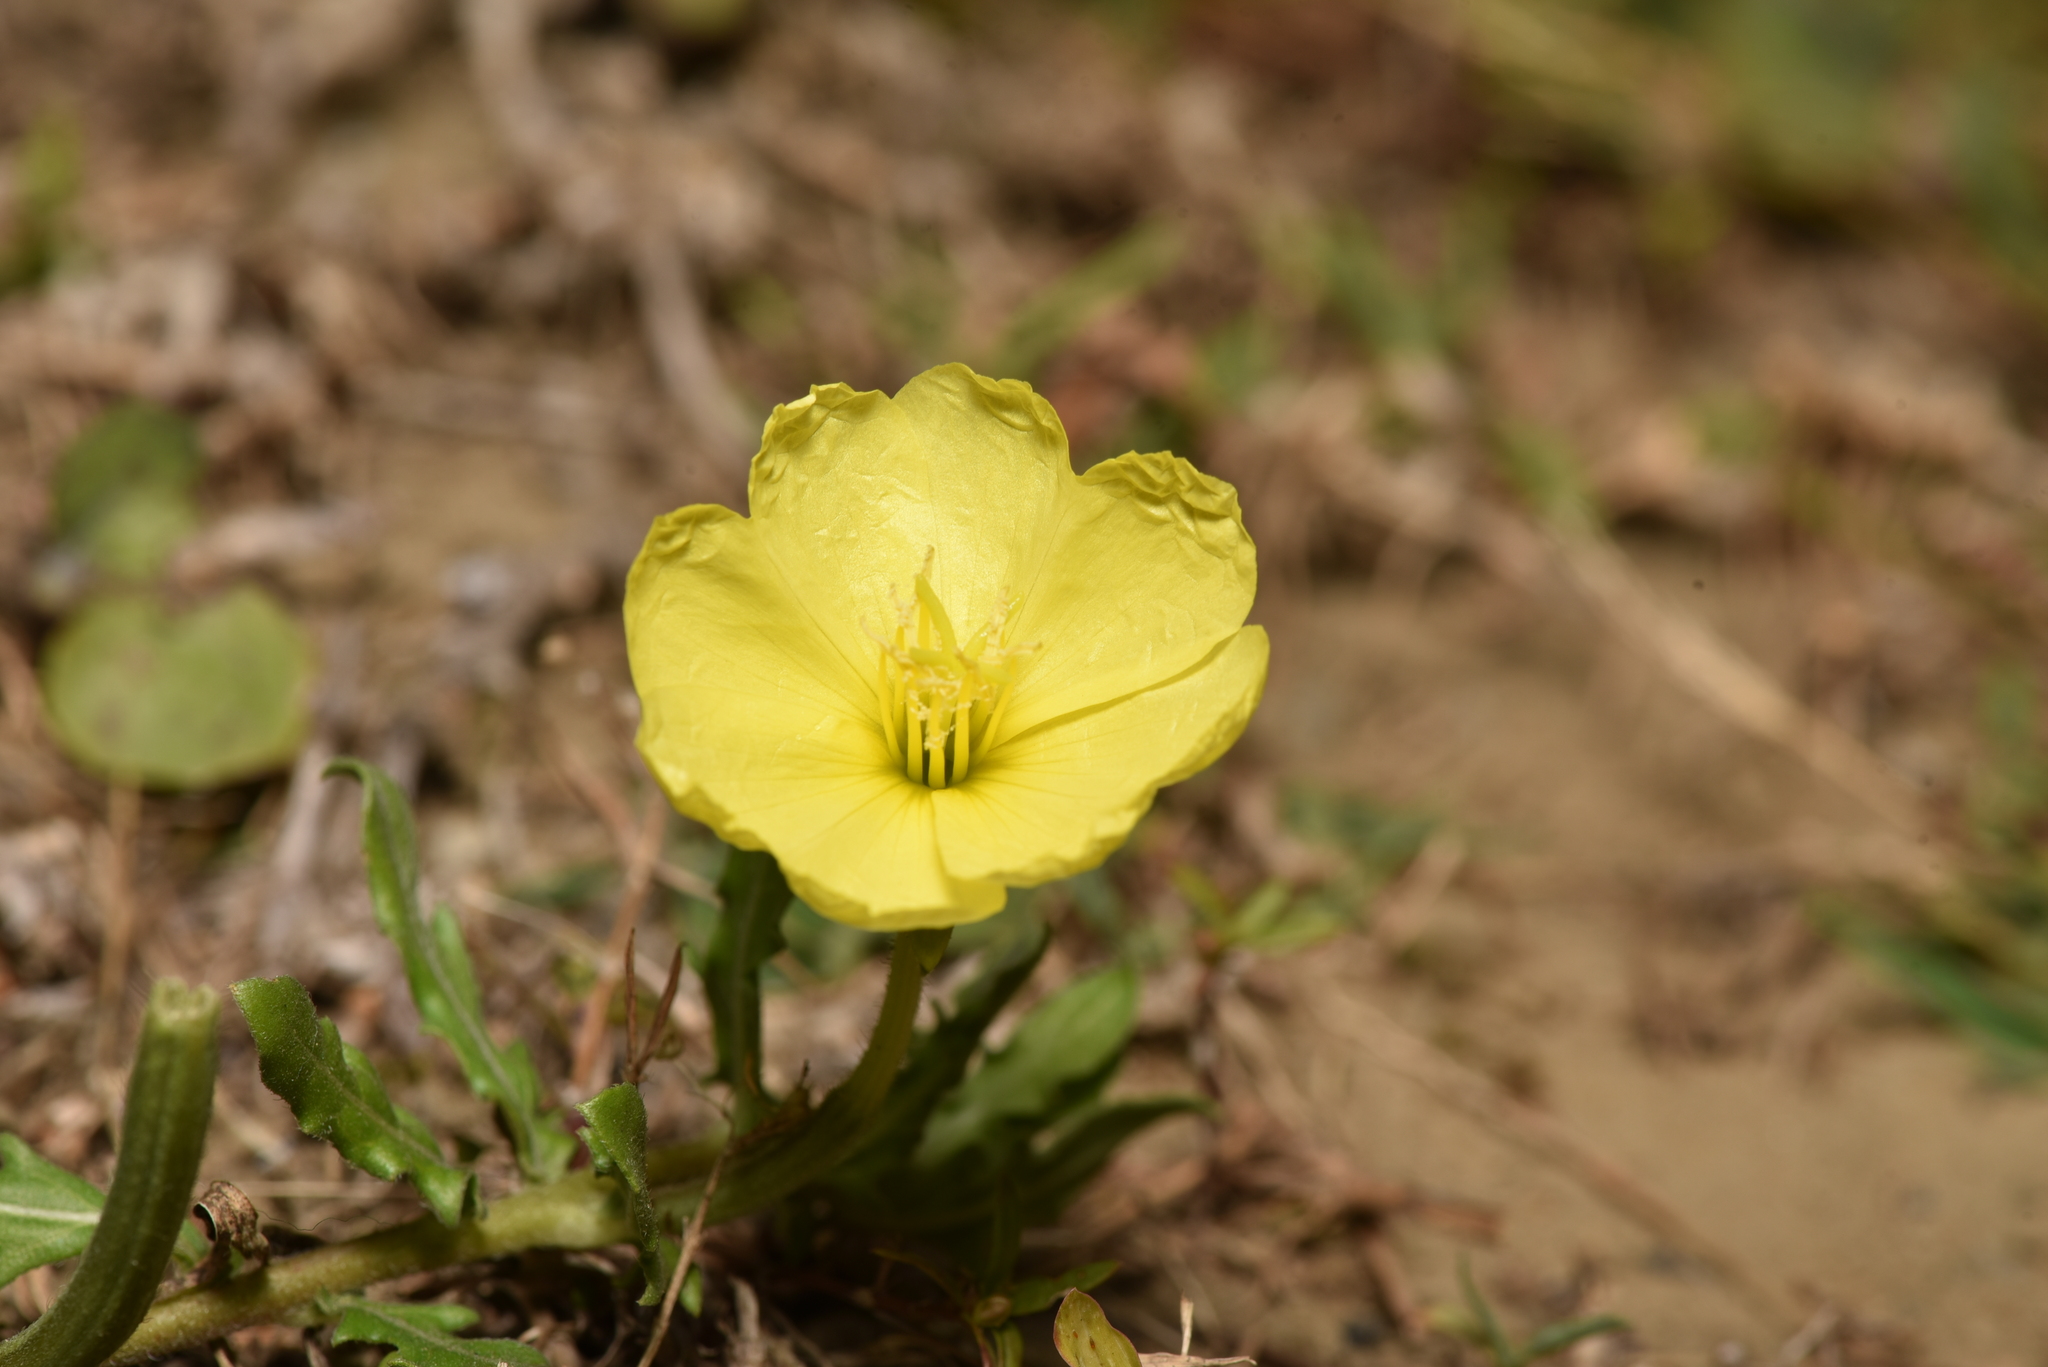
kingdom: Plantae
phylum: Tracheophyta
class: Magnoliopsida
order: Myrtales
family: Onagraceae
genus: Oenothera
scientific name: Oenothera laciniata
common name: Cut-leaved evening-primrose
